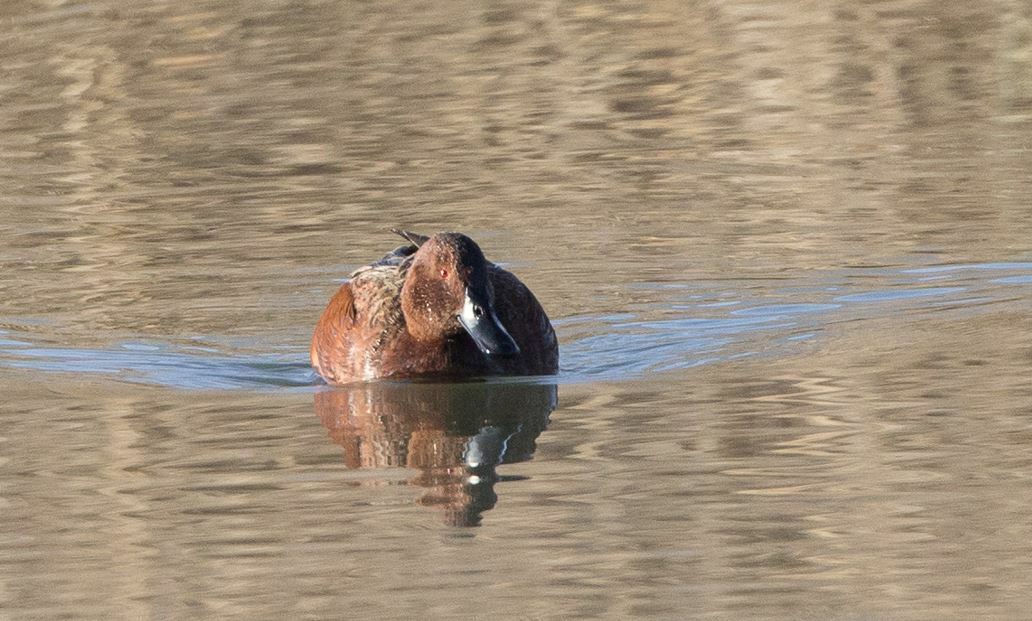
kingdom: Animalia
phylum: Chordata
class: Aves
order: Anseriformes
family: Anatidae
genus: Spatula
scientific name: Spatula cyanoptera
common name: Cinnamon teal
